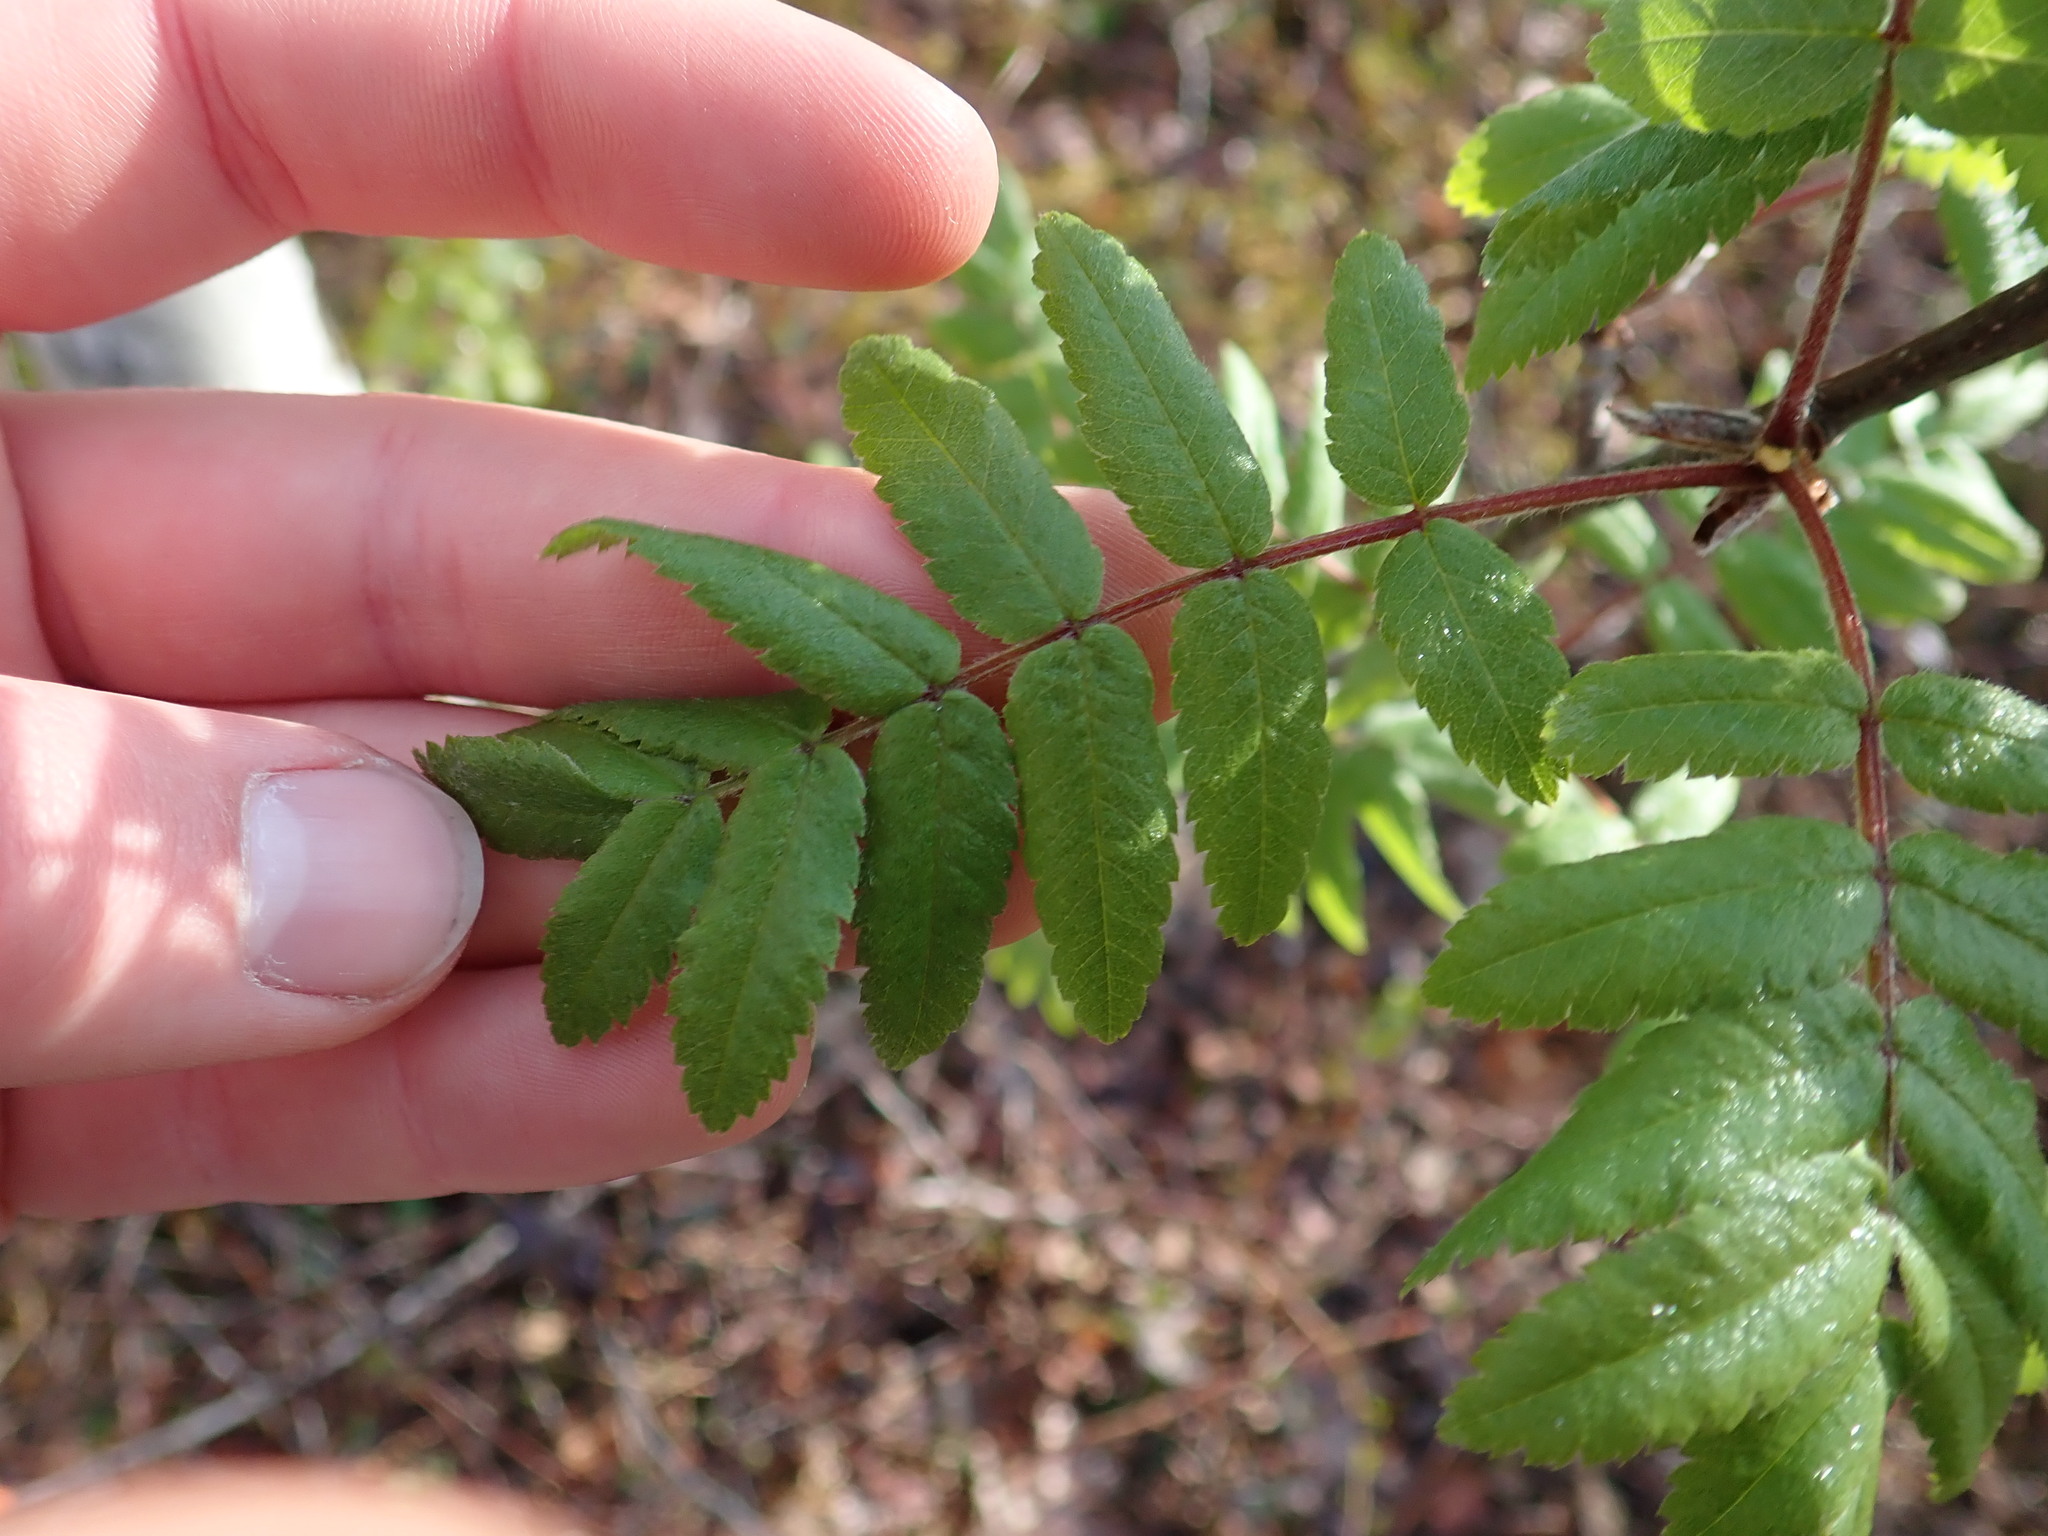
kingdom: Plantae
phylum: Tracheophyta
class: Magnoliopsida
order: Rosales
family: Rosaceae
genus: Sorbus
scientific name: Sorbus aucuparia
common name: Rowan
